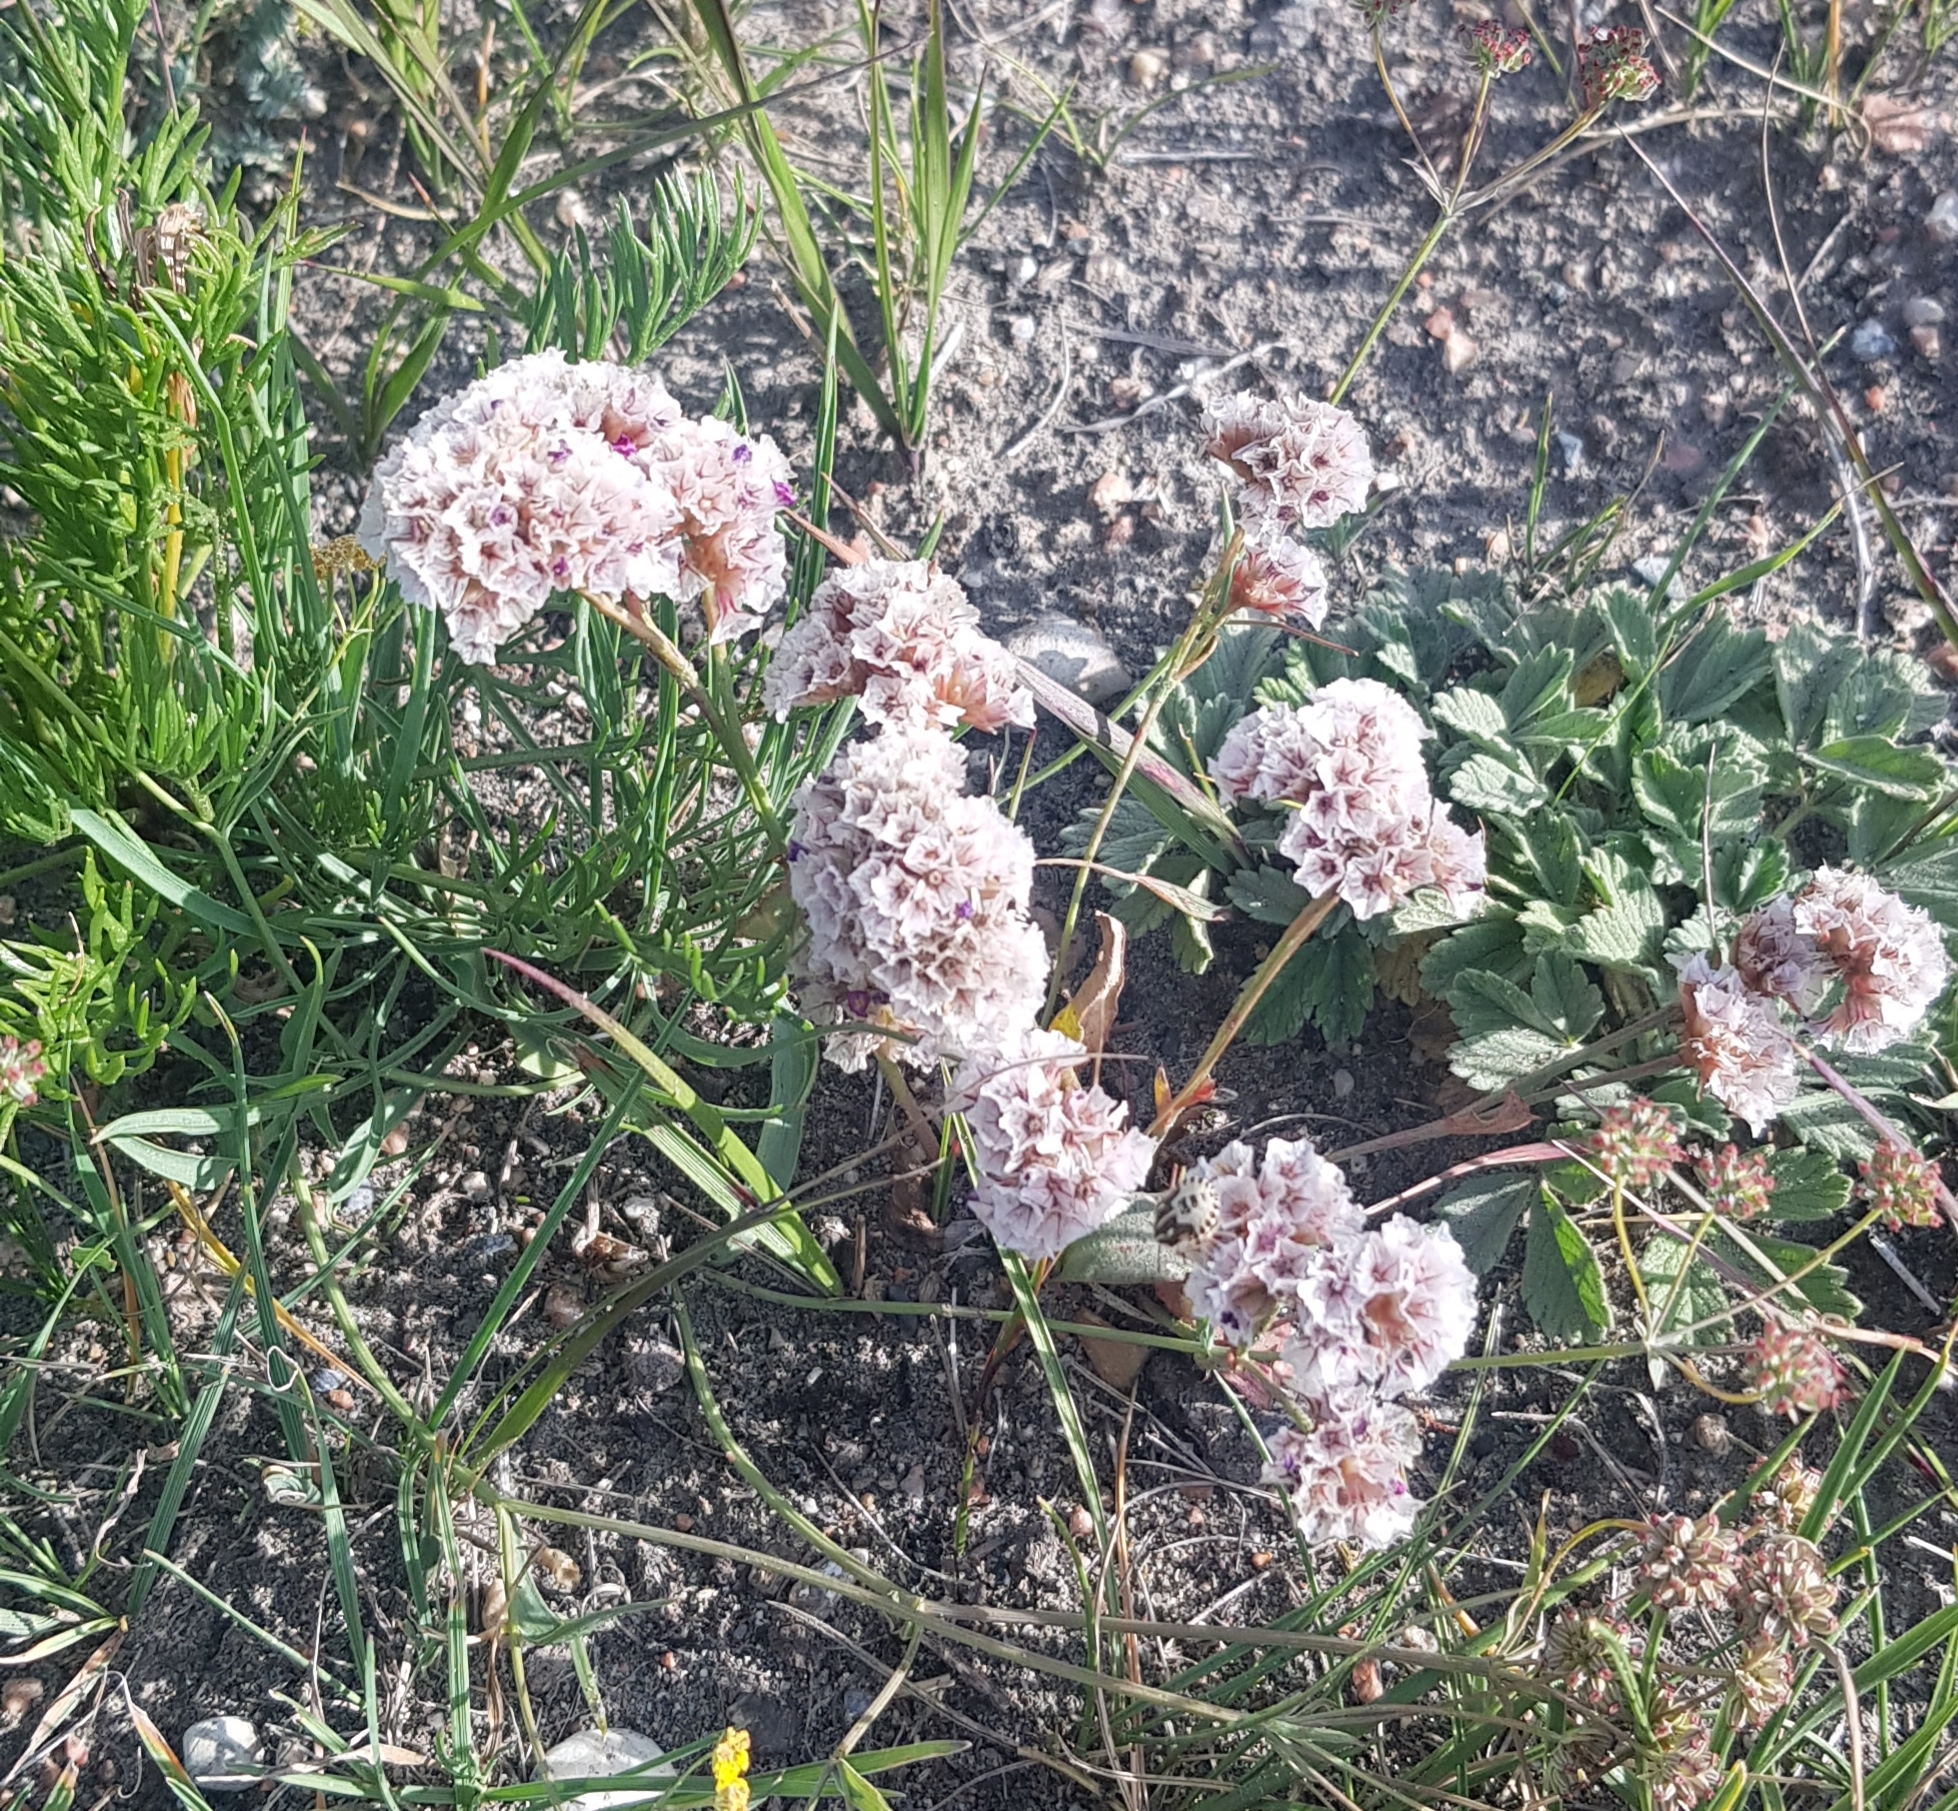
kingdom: Plantae
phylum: Tracheophyta
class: Magnoliopsida
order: Caryophyllales
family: Plumbaginaceae
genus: Goniolimon
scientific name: Goniolimon speciosum
